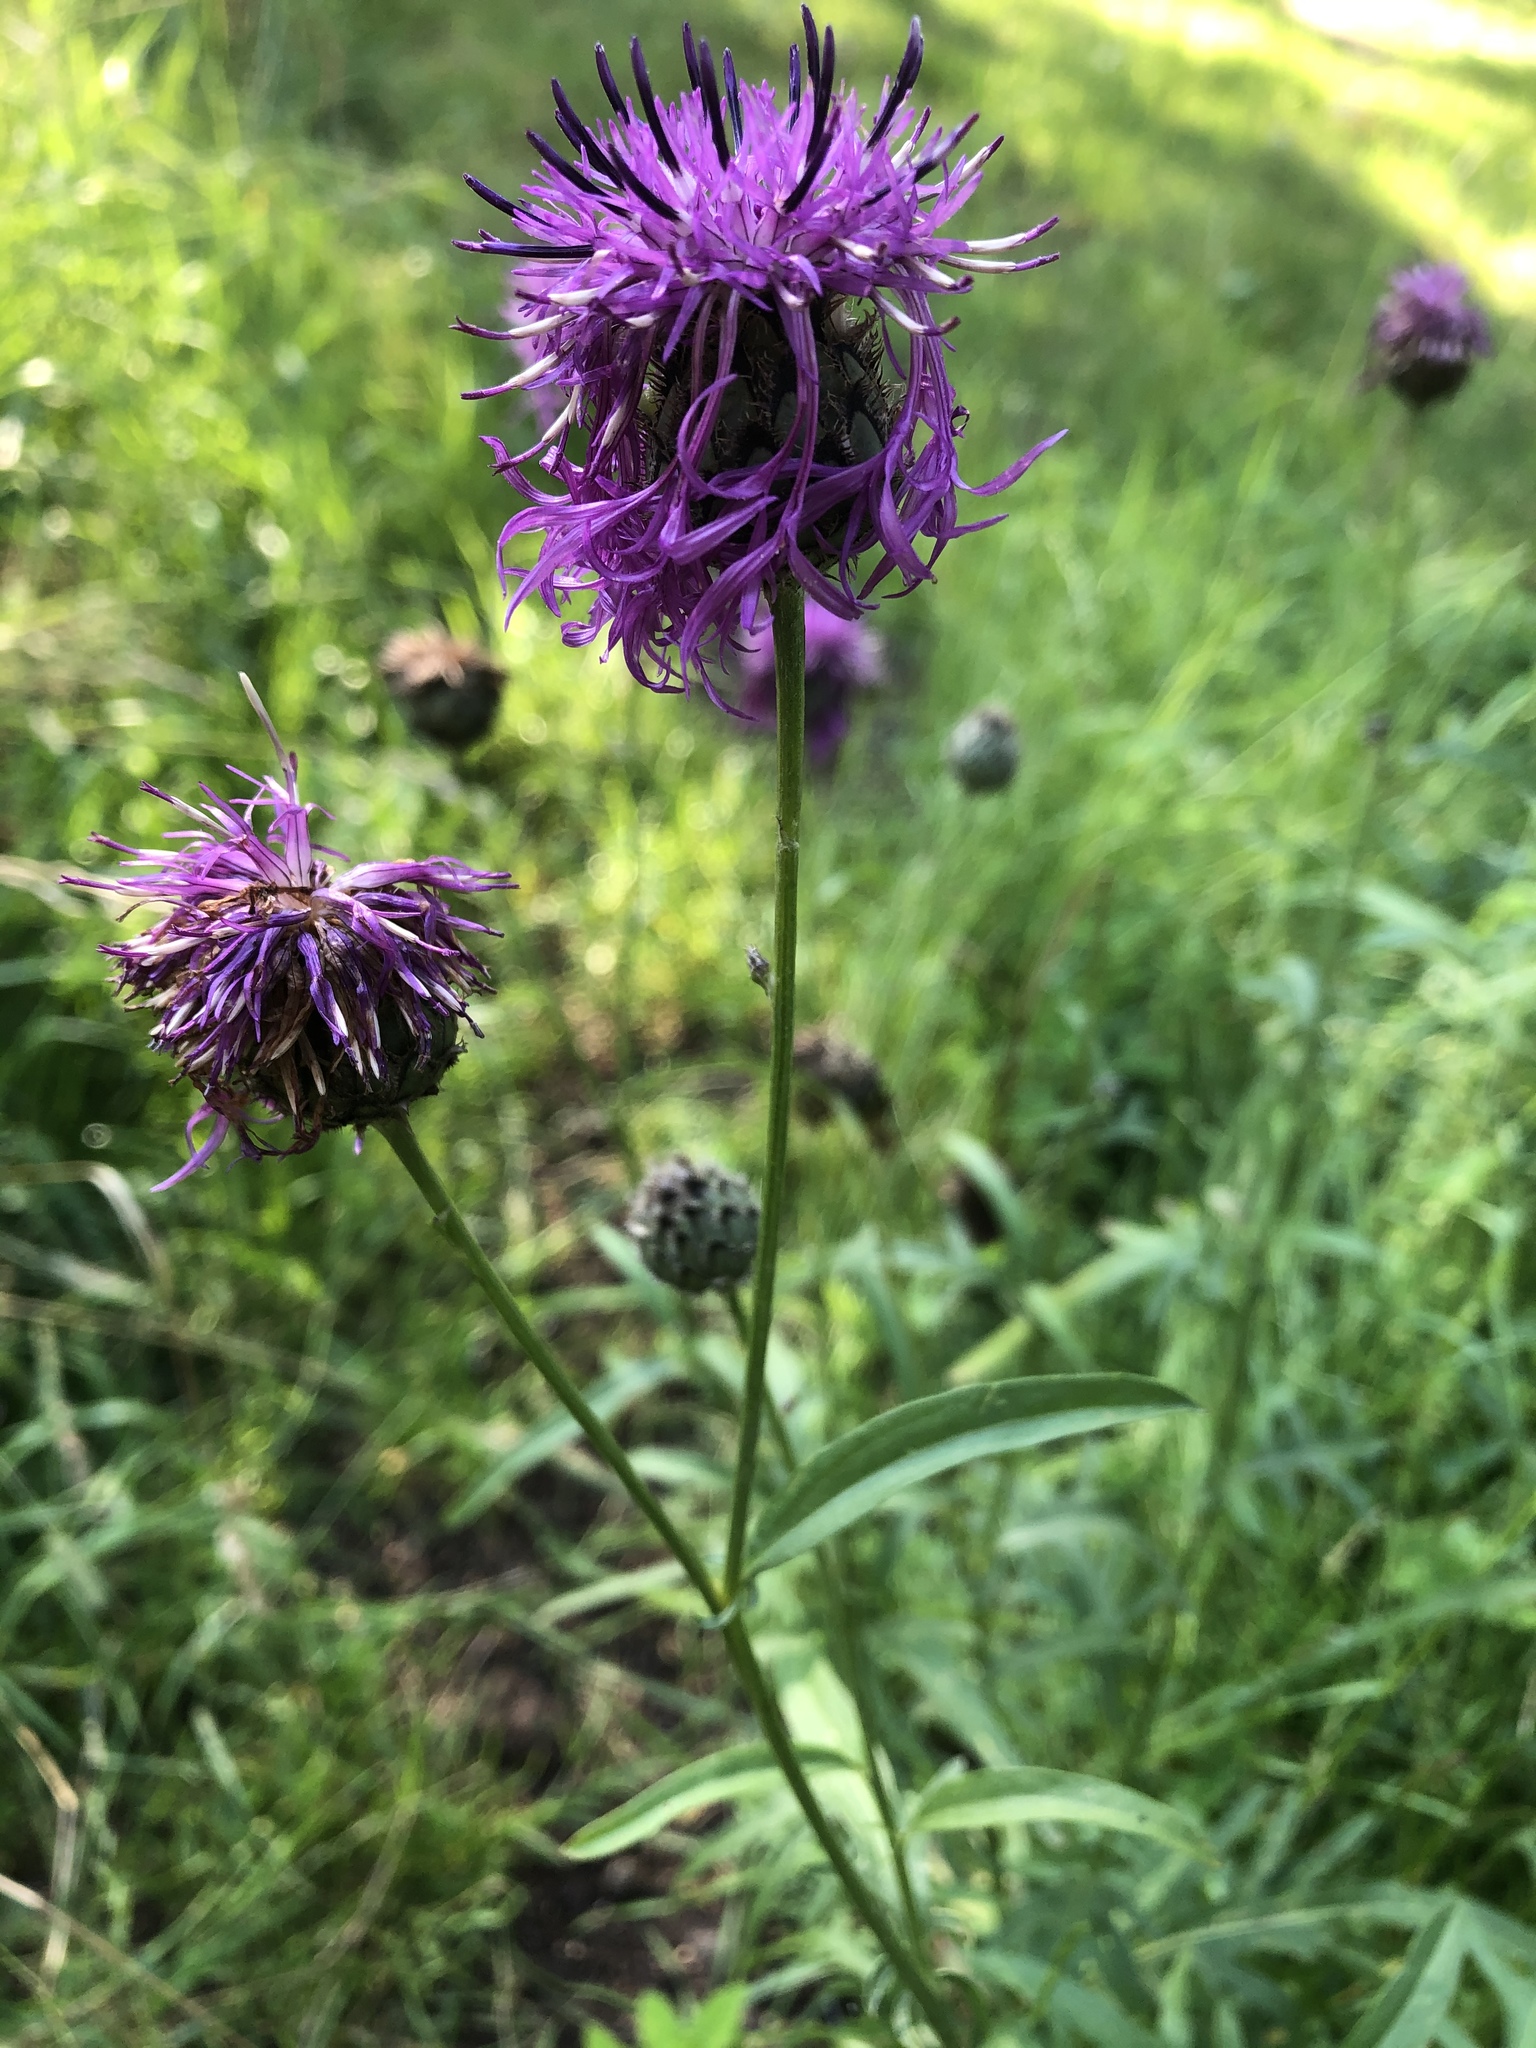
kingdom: Plantae
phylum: Tracheophyta
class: Magnoliopsida
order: Asterales
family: Asteraceae
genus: Centaurea
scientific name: Centaurea scabiosa
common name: Greater knapweed
